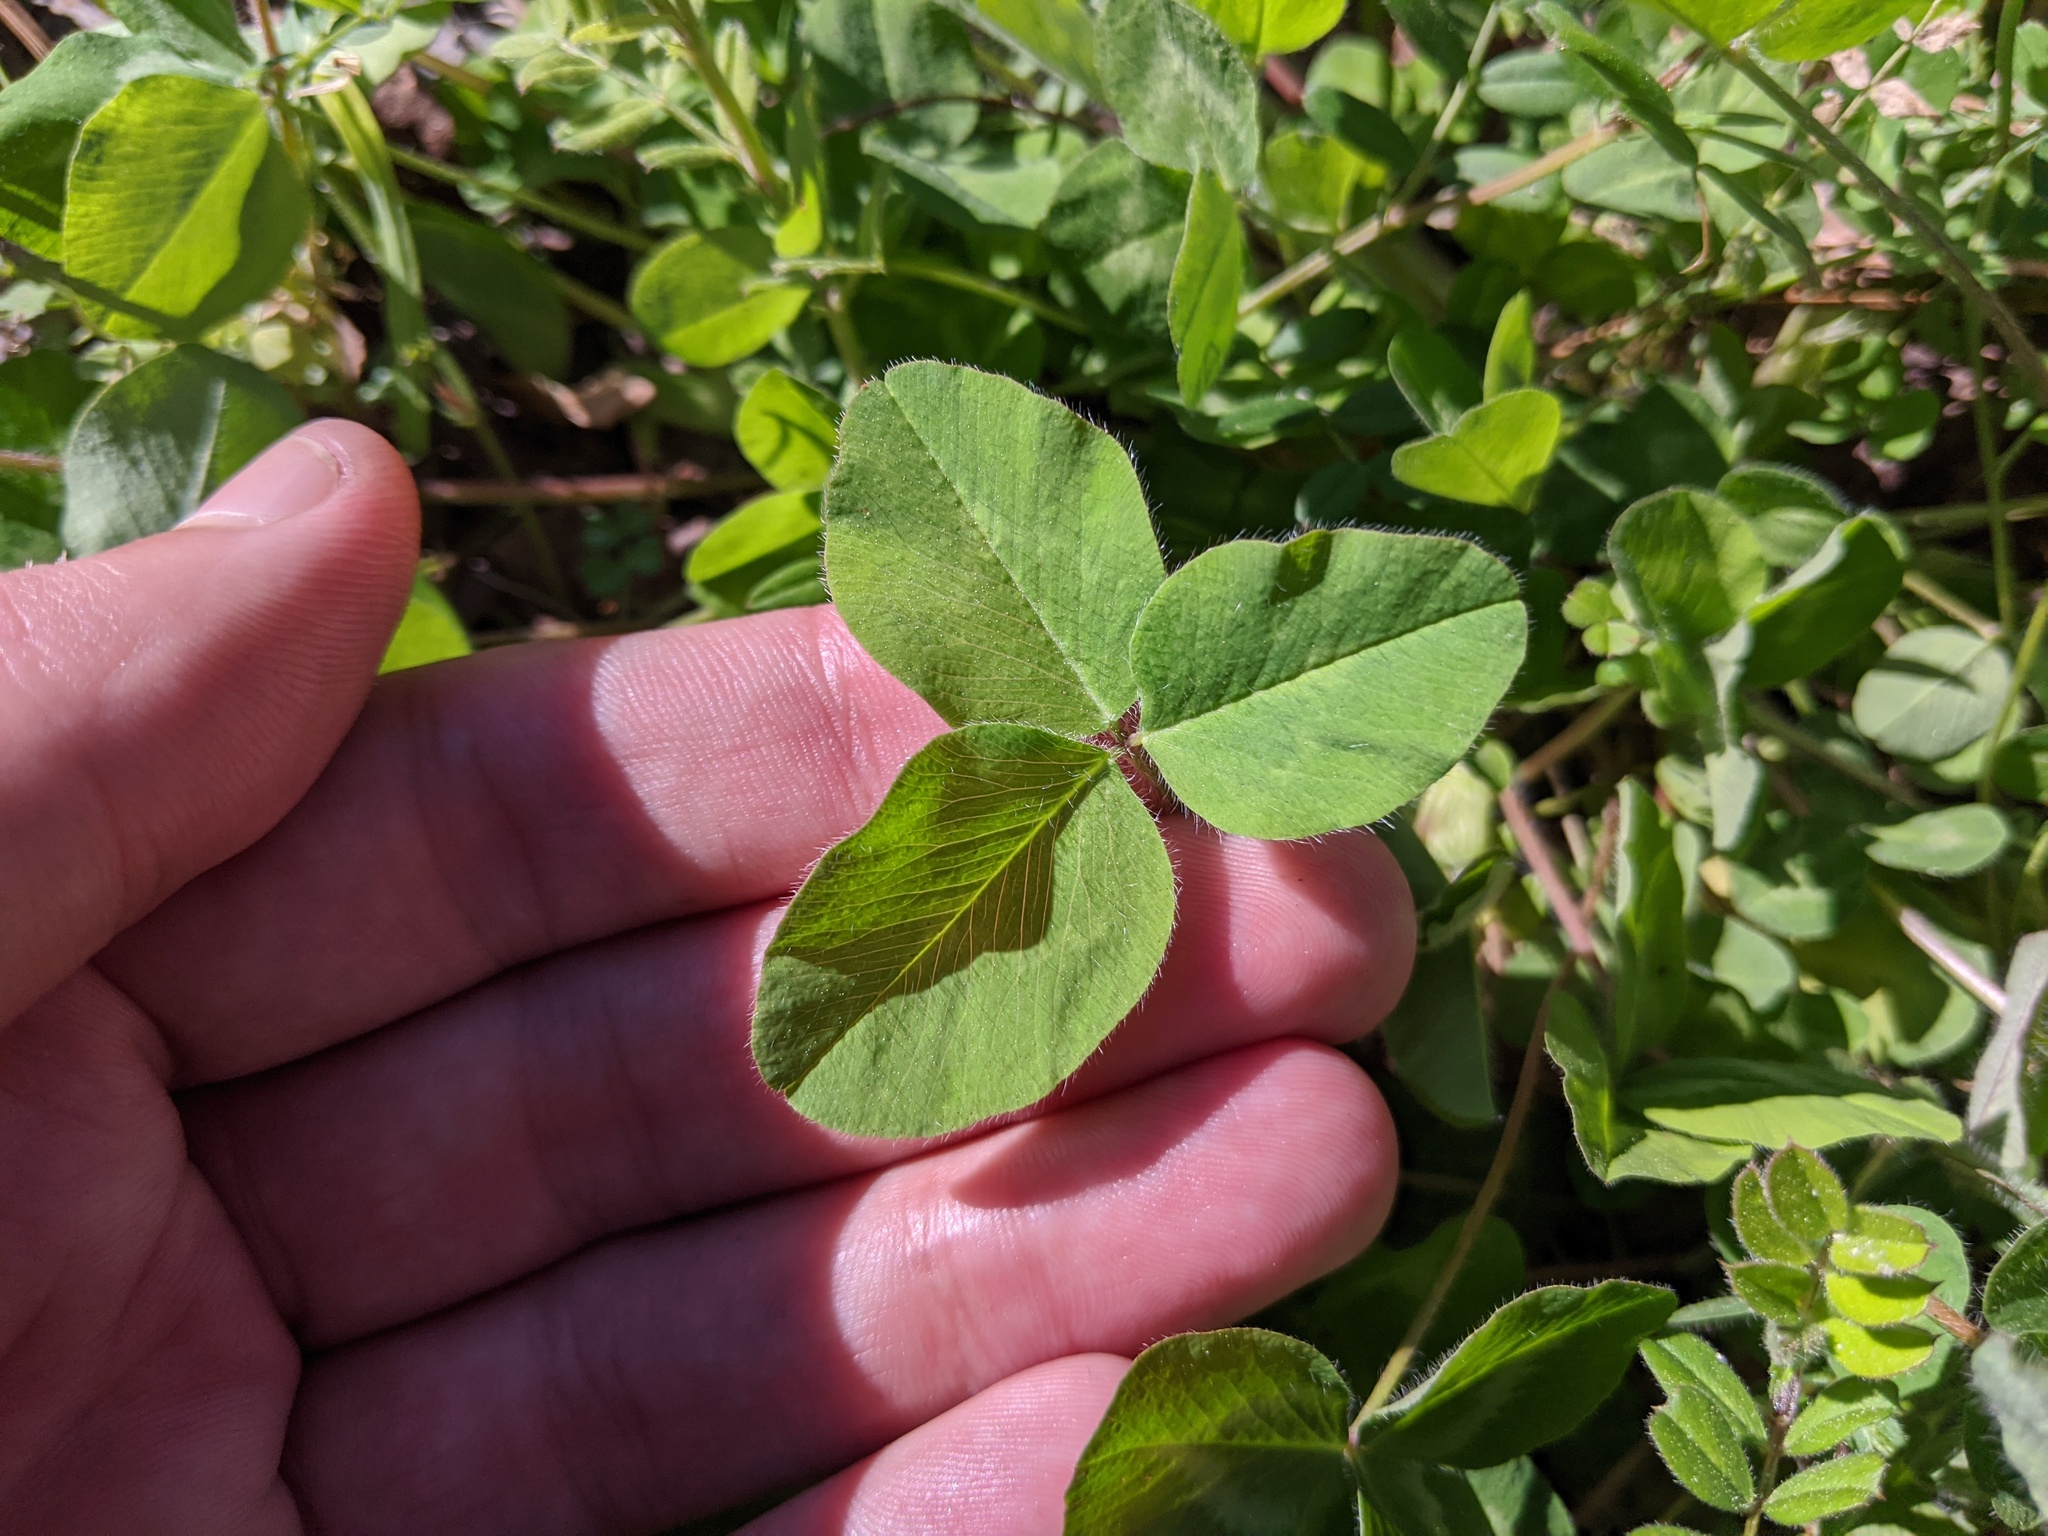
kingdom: Plantae
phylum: Tracheophyta
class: Magnoliopsida
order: Fabales
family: Fabaceae
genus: Trifolium
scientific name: Trifolium repens
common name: White clover
